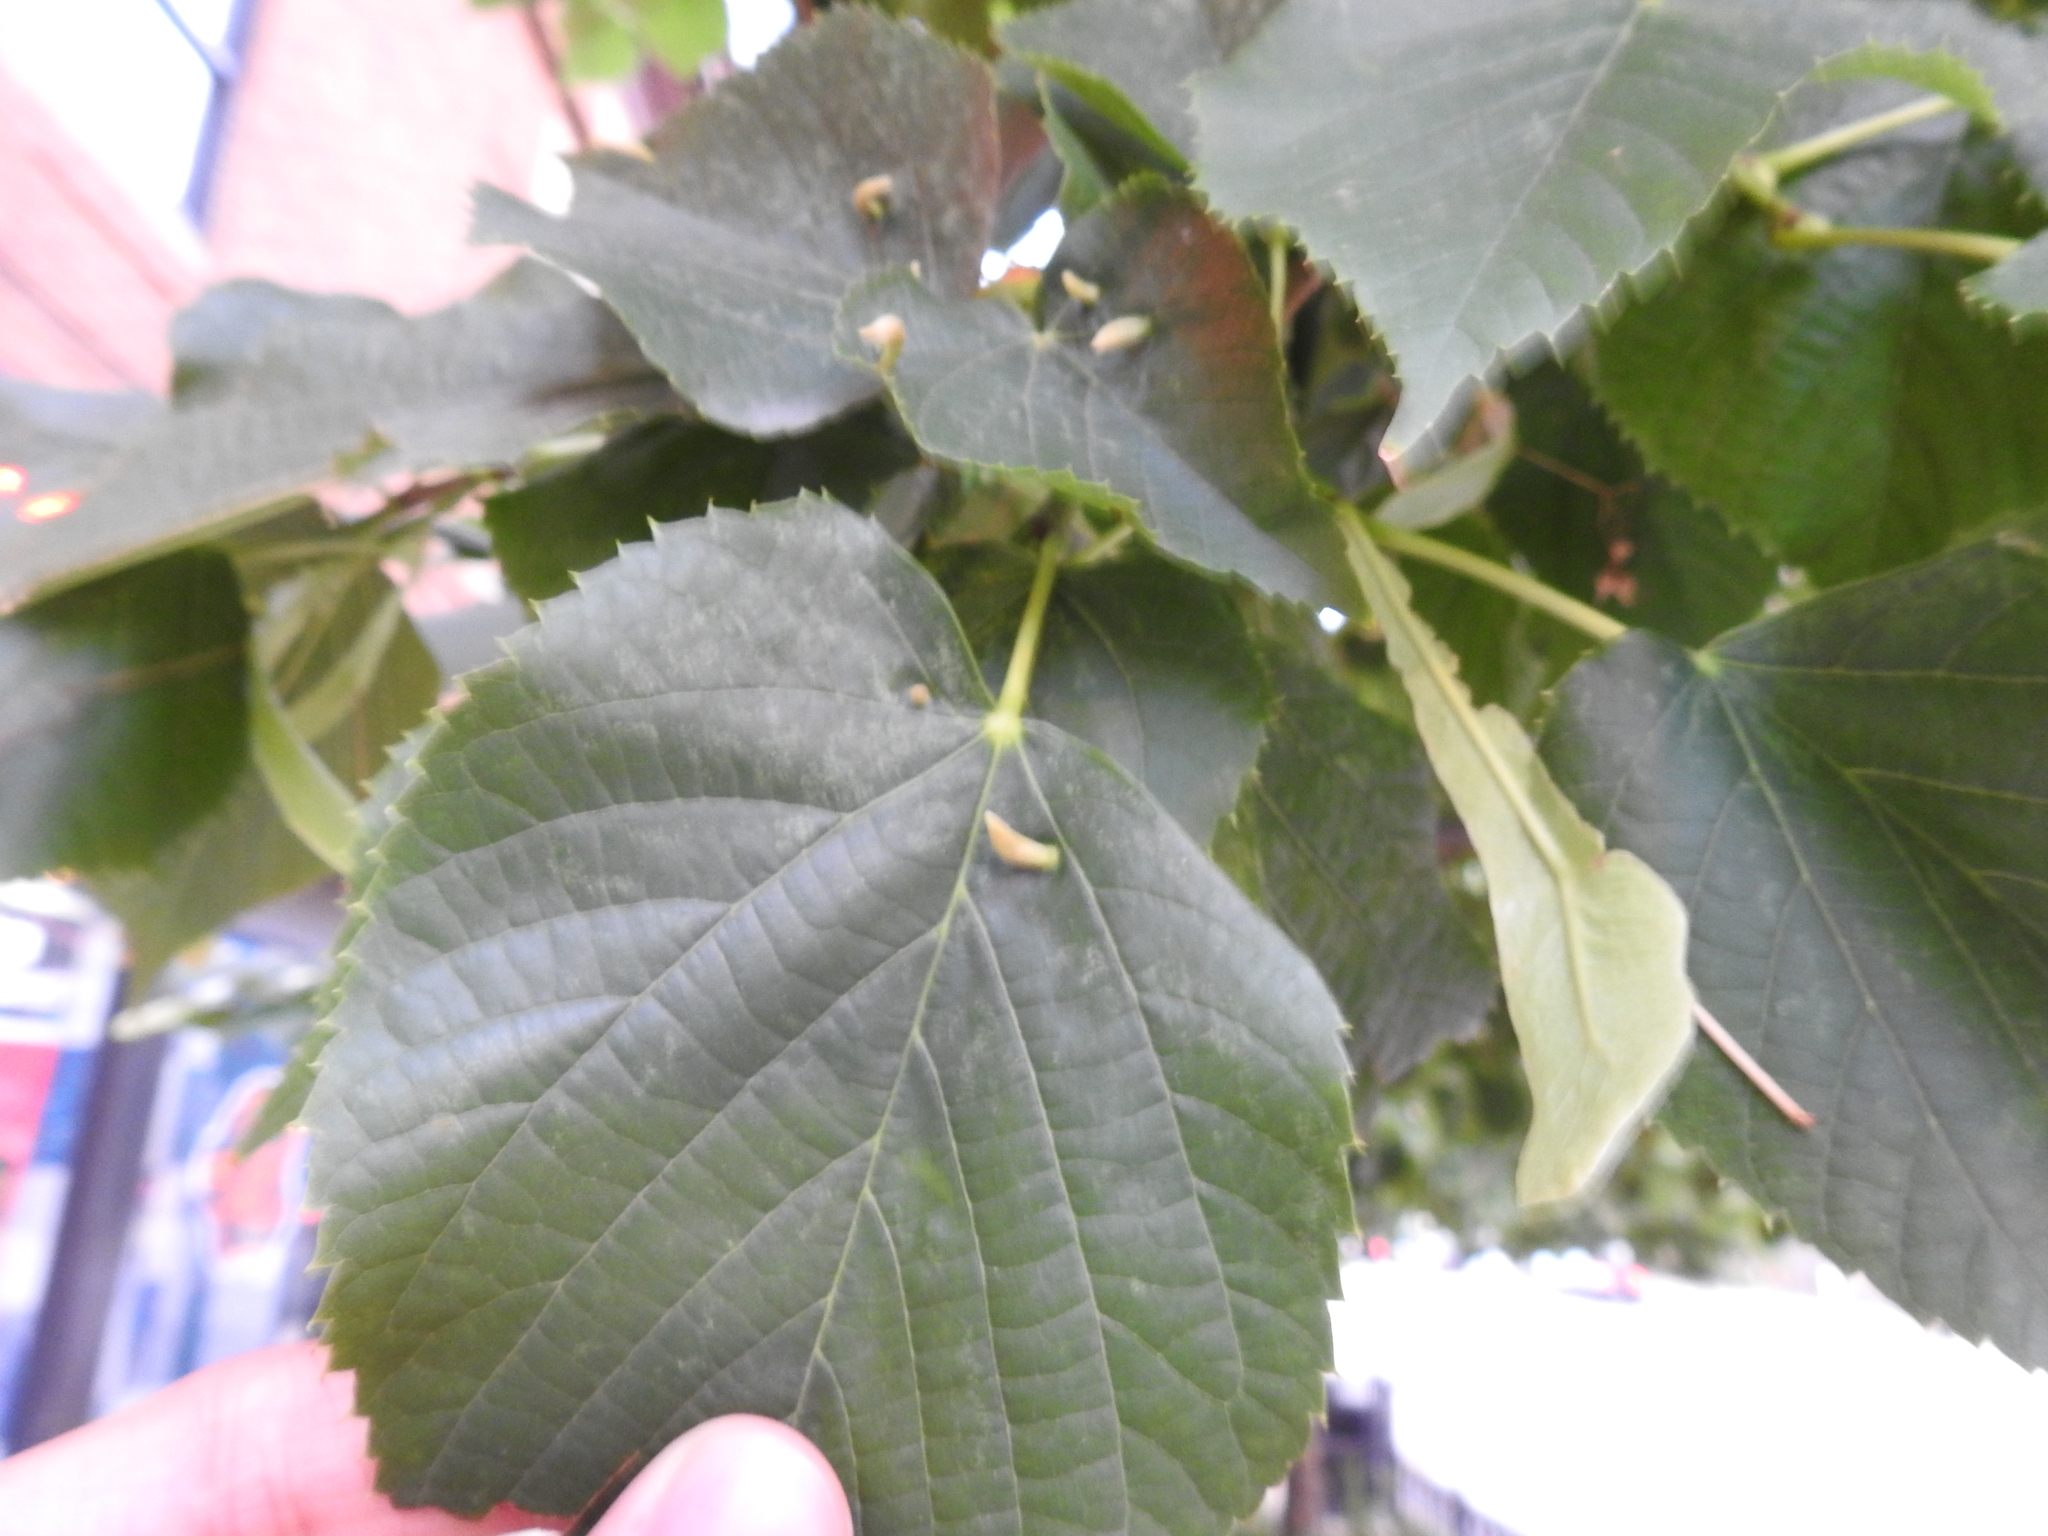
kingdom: Animalia
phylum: Arthropoda
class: Arachnida
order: Trombidiformes
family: Eriophyidae
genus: Eriophyes
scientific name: Eriophyes tiliae
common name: Red nail gall mite
